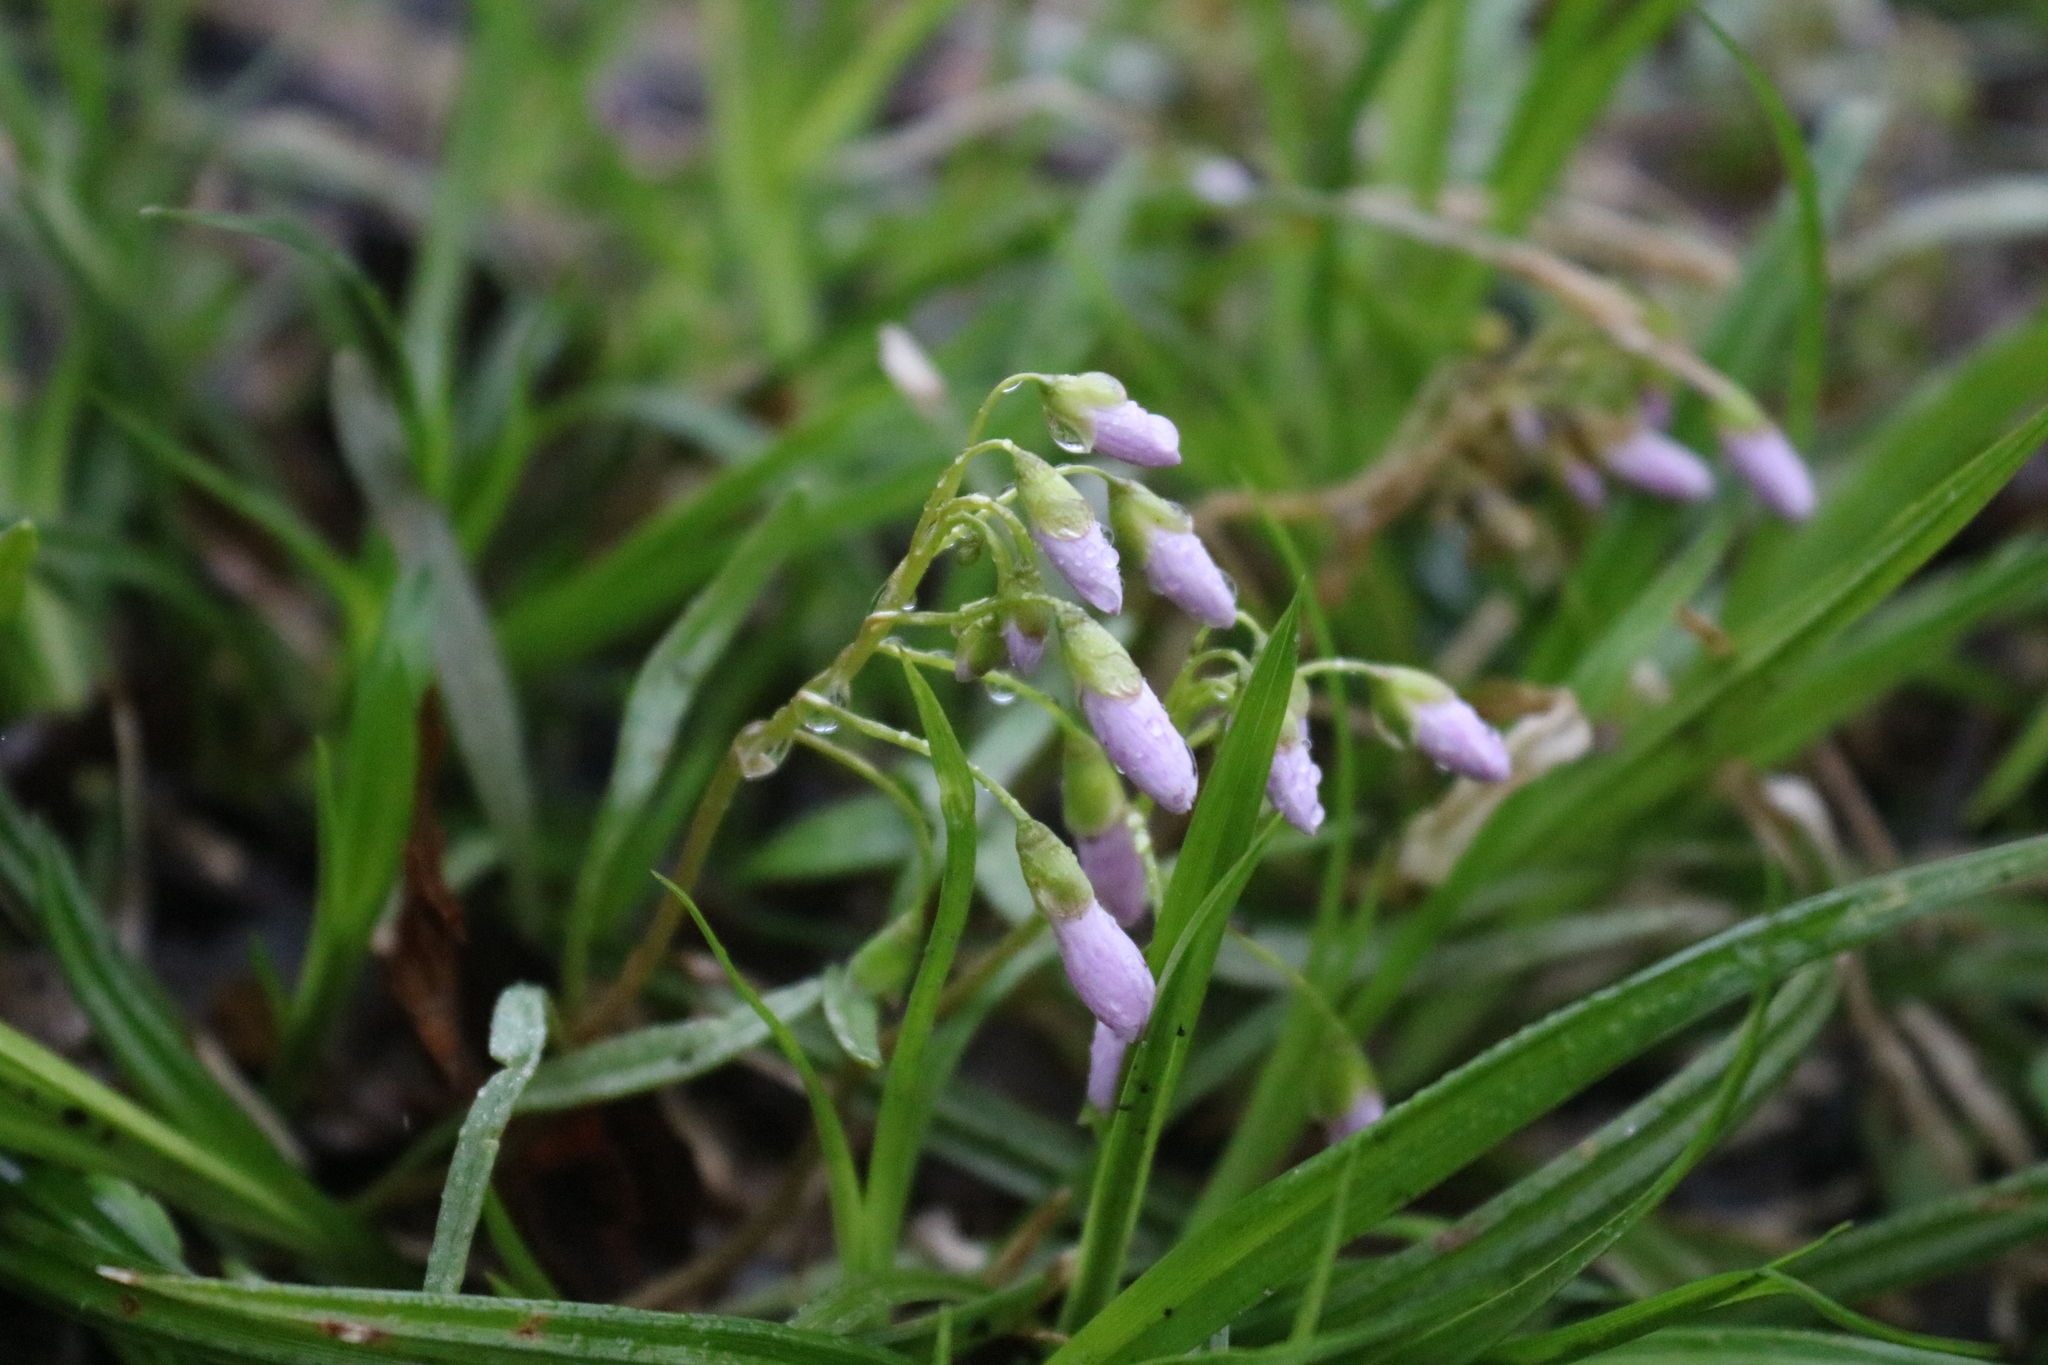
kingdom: Plantae
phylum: Tracheophyta
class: Magnoliopsida
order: Caryophyllales
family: Montiaceae
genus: Claytonia
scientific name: Claytonia virginica
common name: Virginia springbeauty
